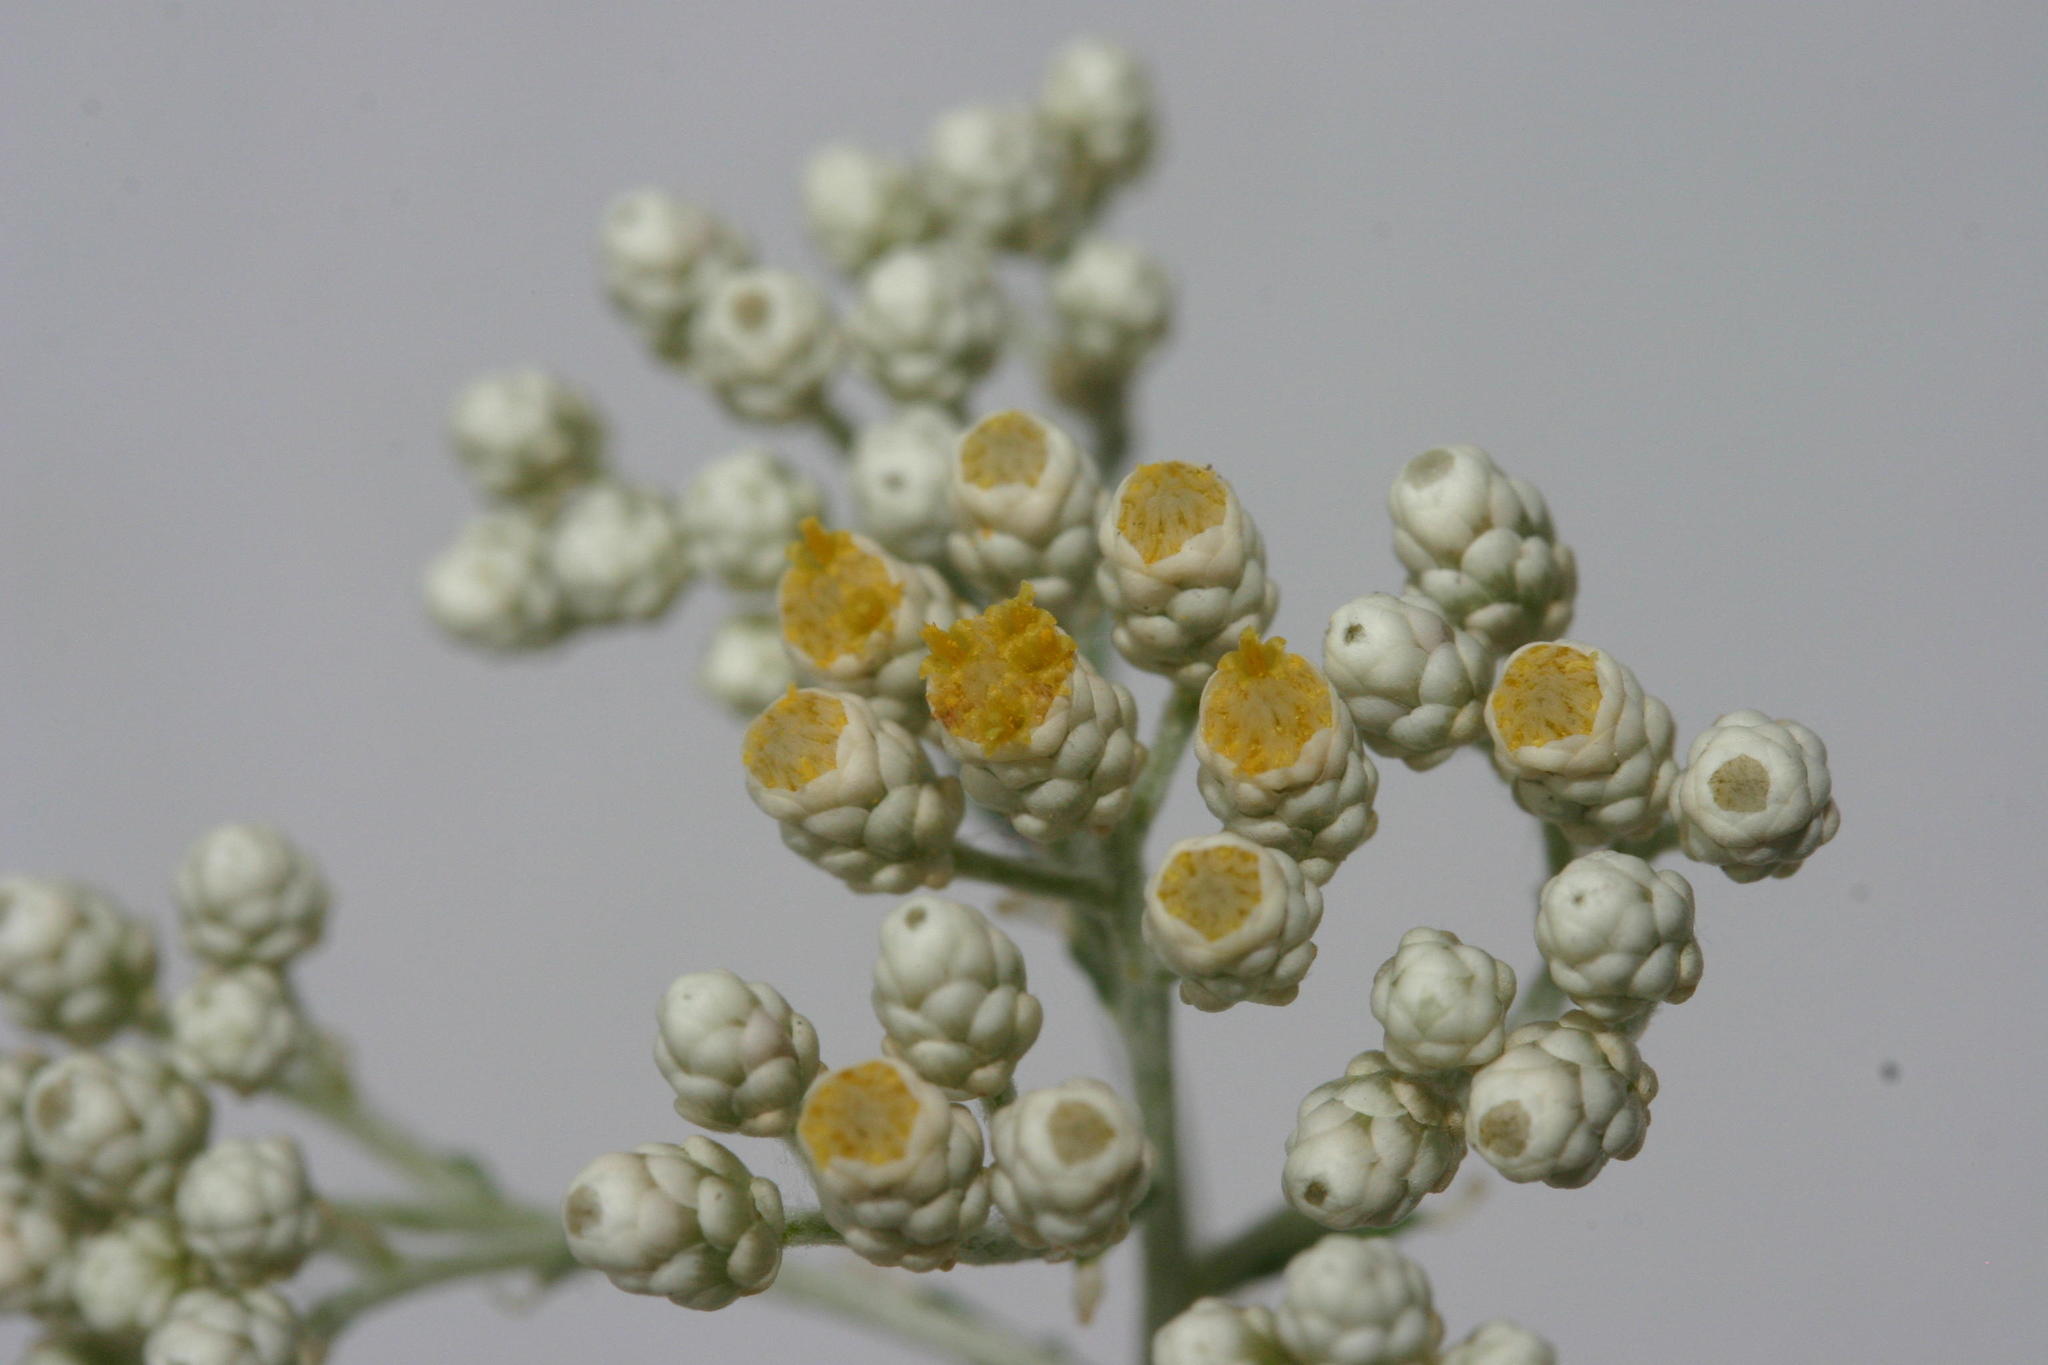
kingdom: Plantae
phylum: Tracheophyta
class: Magnoliopsida
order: Asterales
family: Asteraceae
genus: Helichrysum
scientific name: Helichrysum rosum
